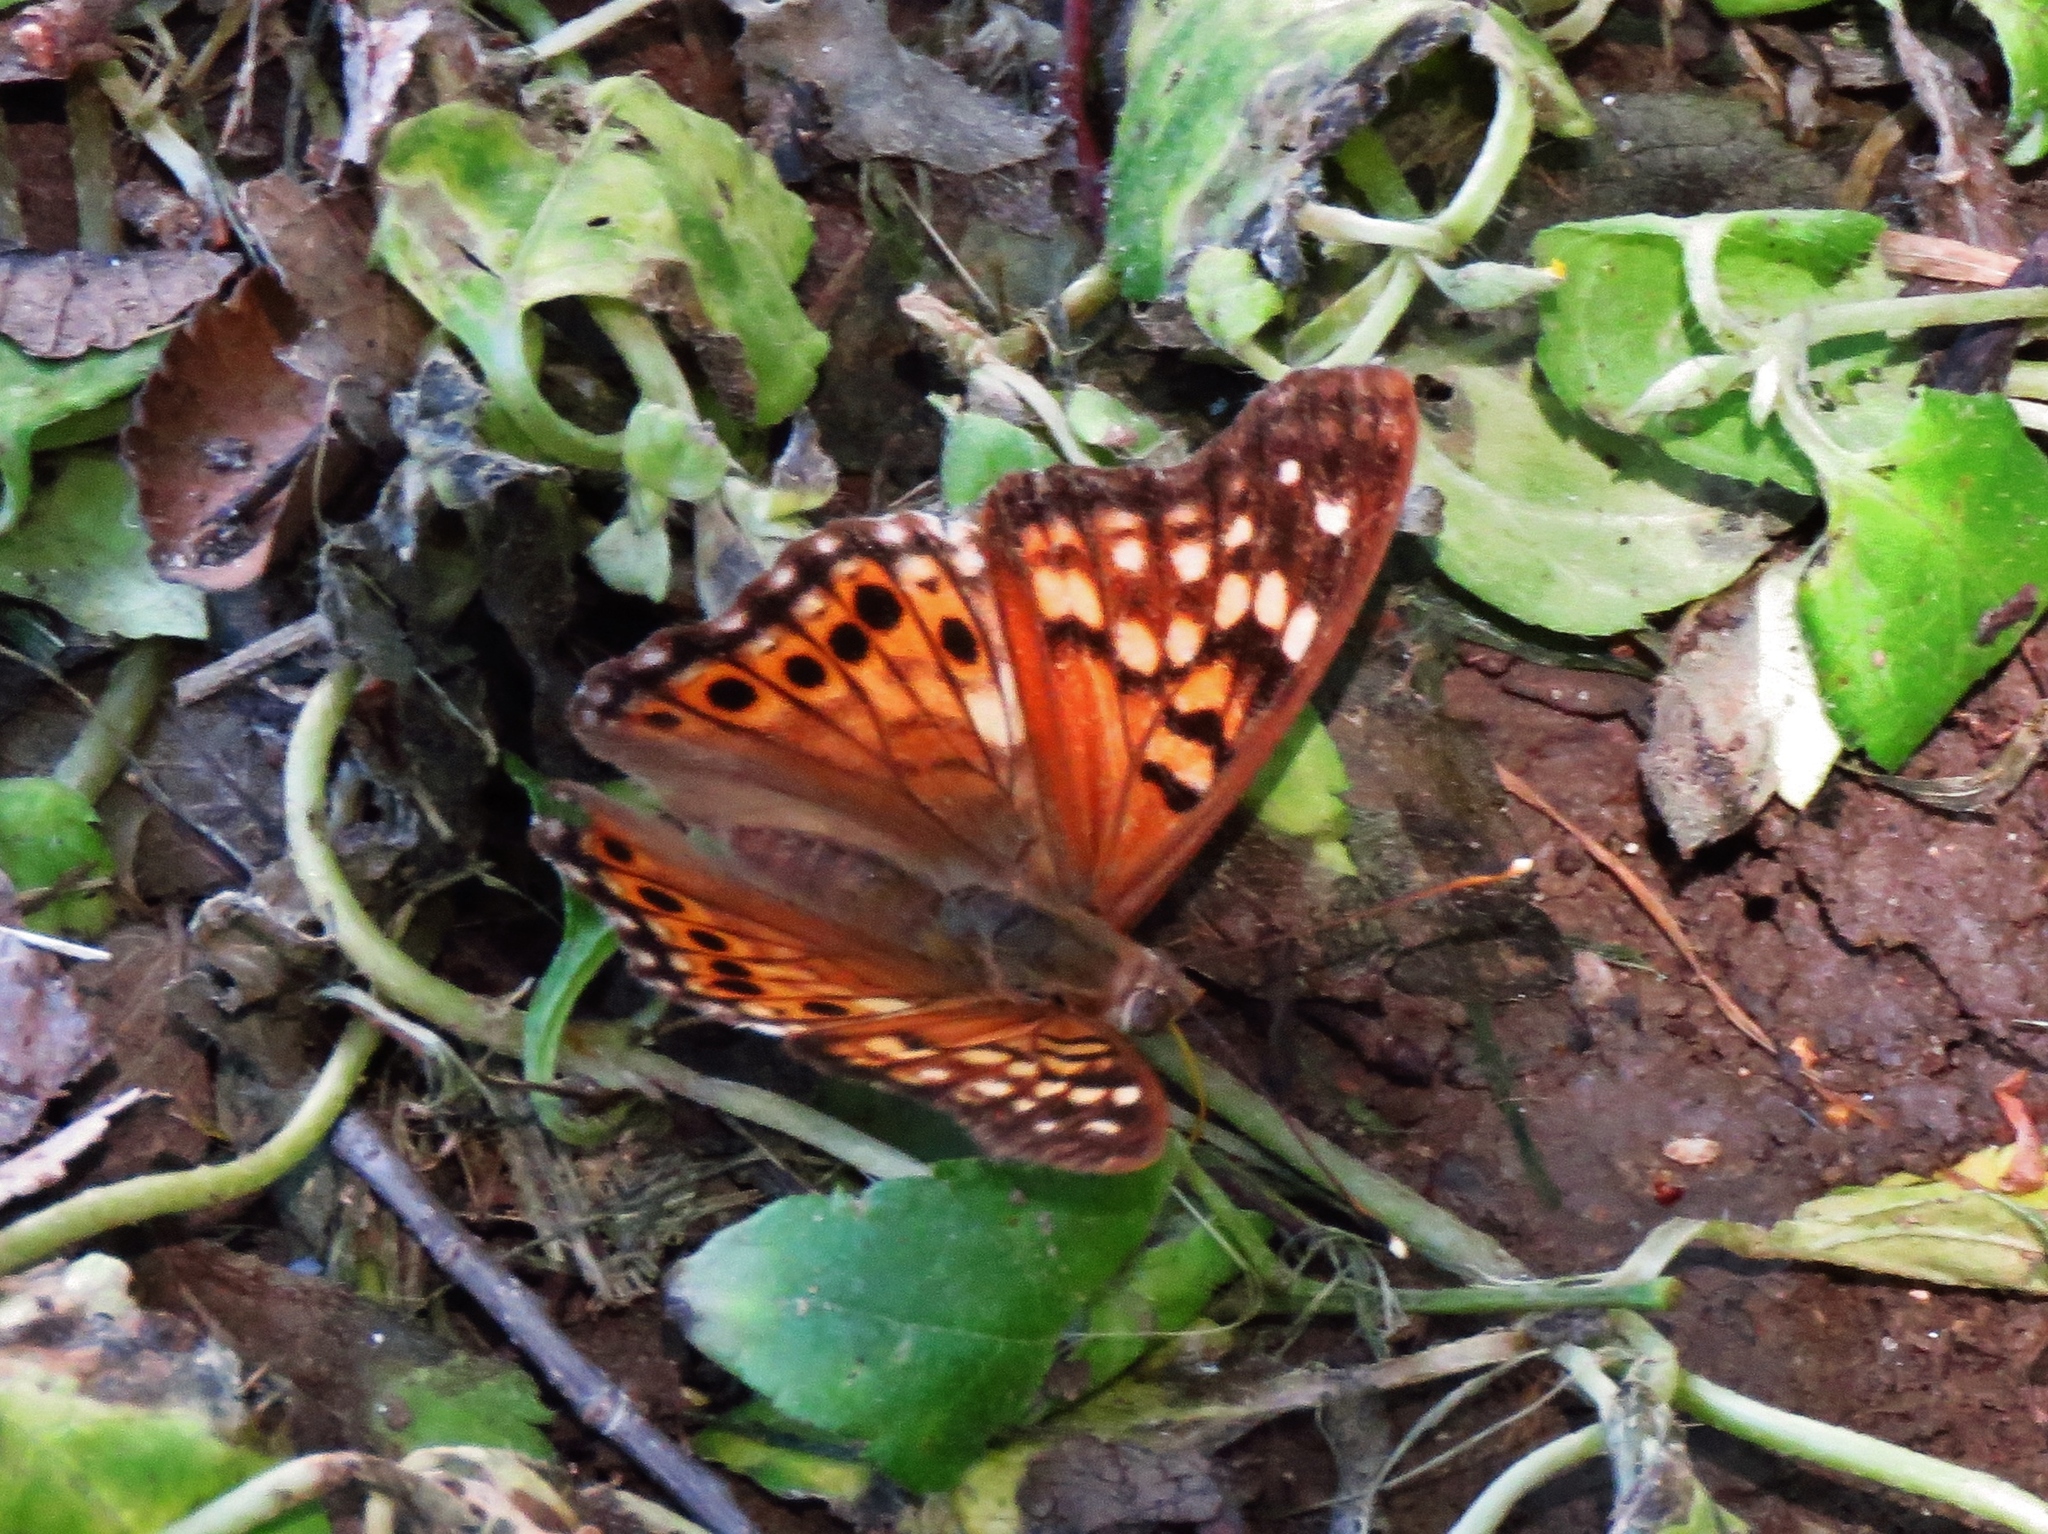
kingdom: Animalia
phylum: Arthropoda
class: Insecta
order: Lepidoptera
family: Nymphalidae
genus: Asterocampa
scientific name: Asterocampa clyton
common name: Tawny emperor
